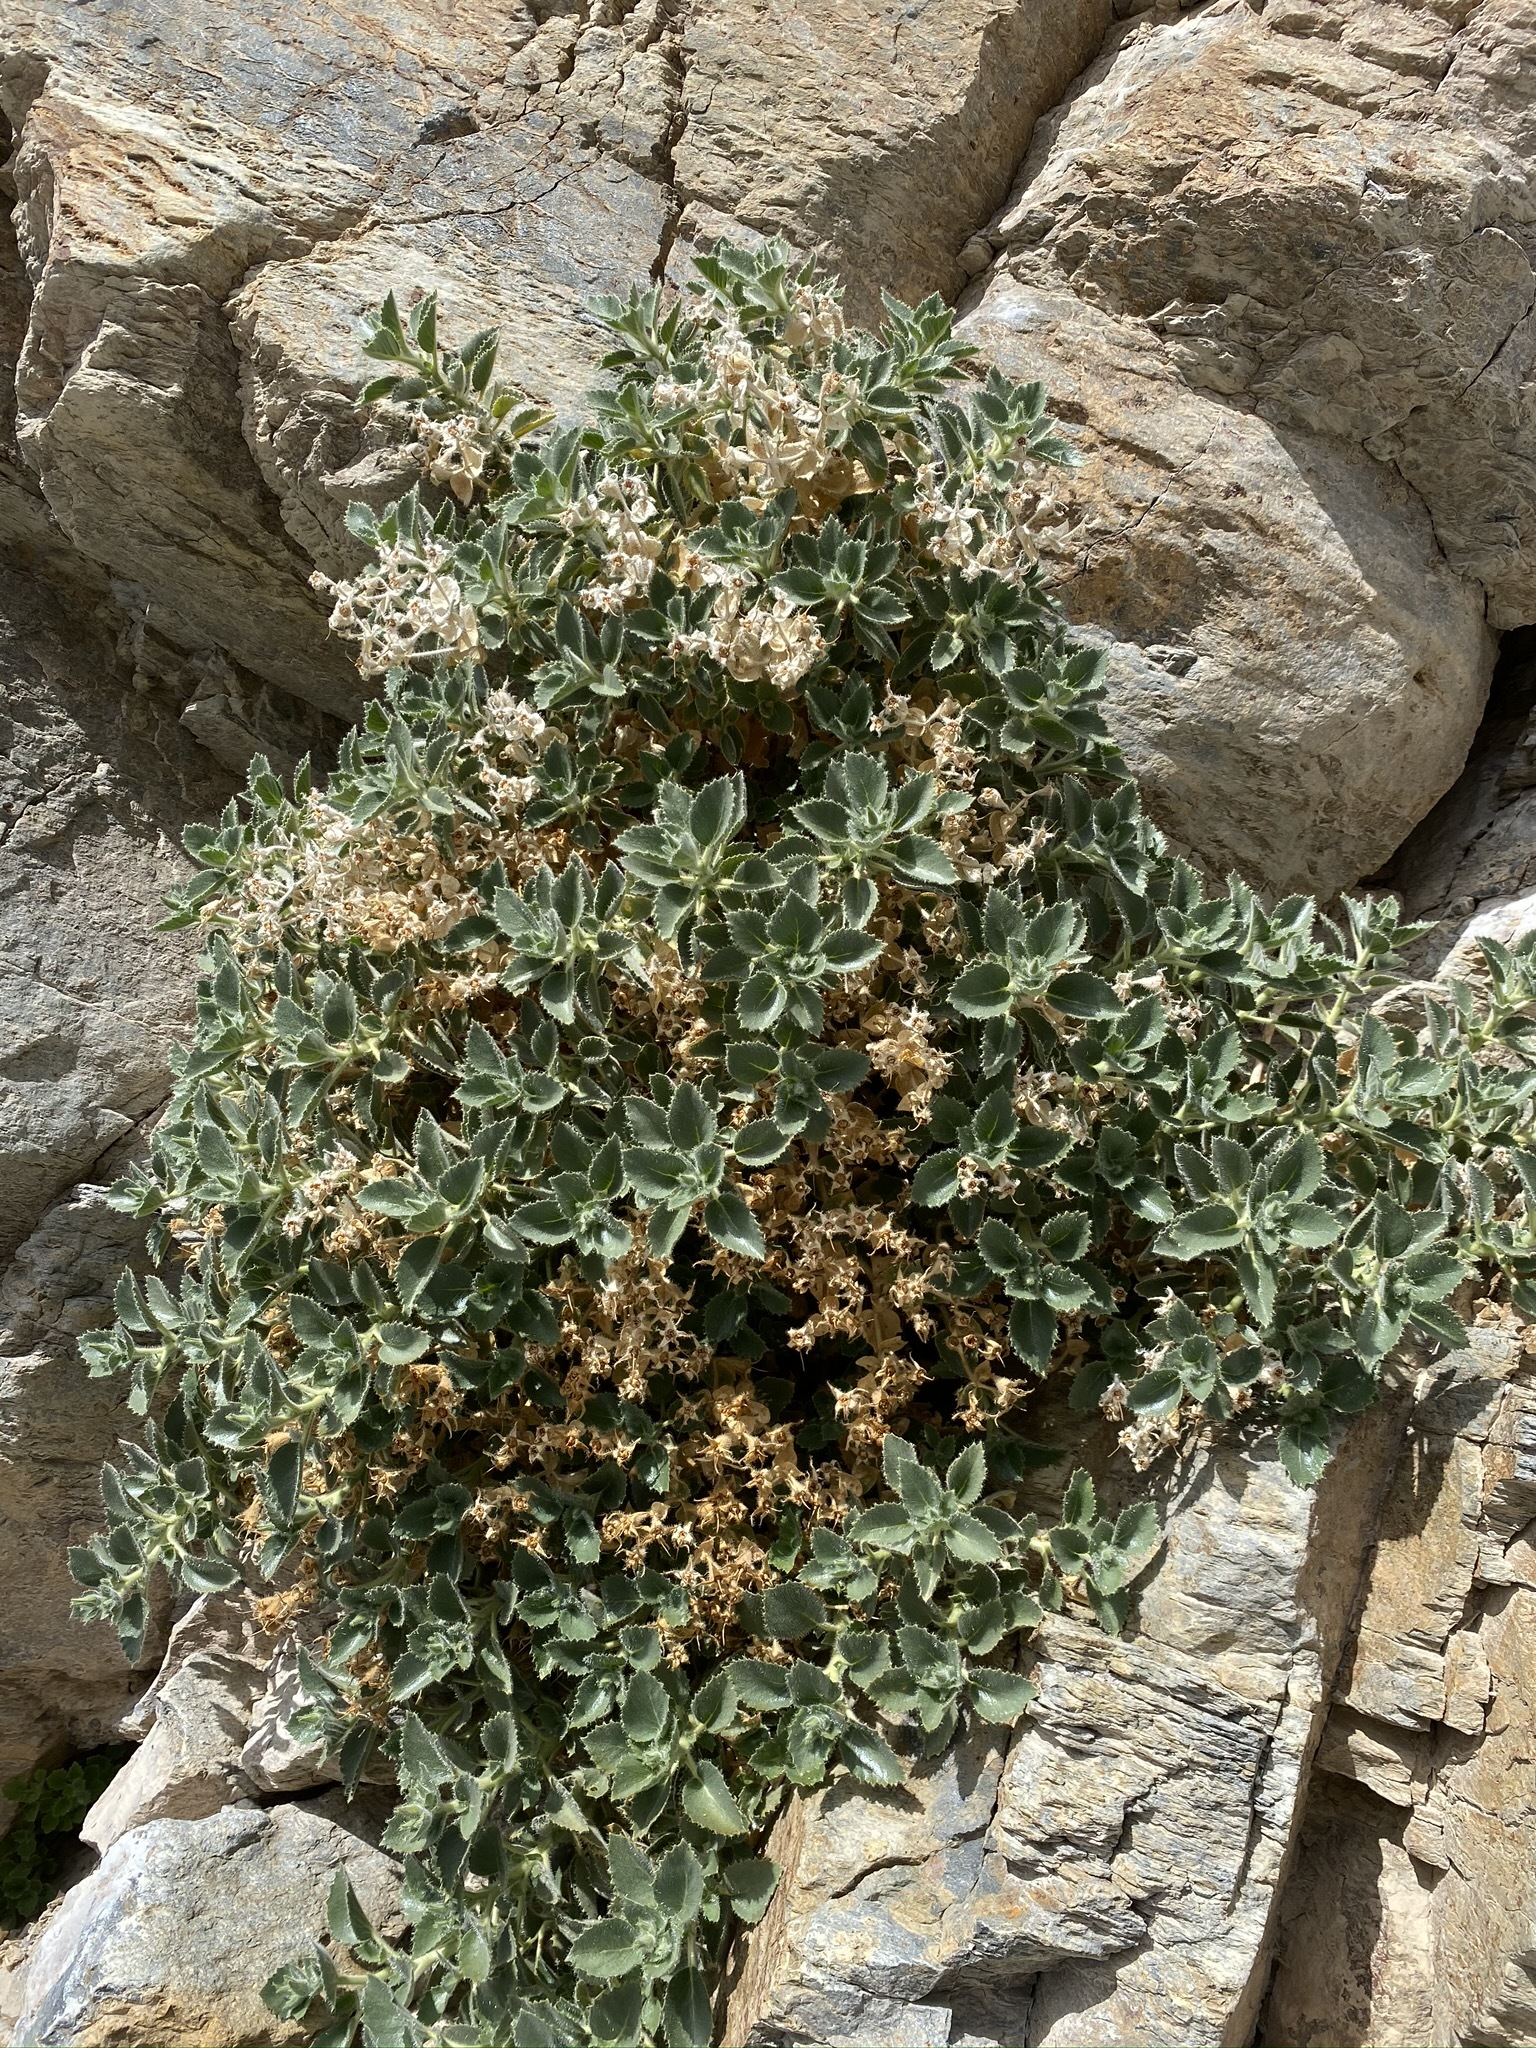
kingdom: Plantae
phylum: Tracheophyta
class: Magnoliopsida
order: Cornales
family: Loasaceae
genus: Eucnide
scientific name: Eucnide urens
